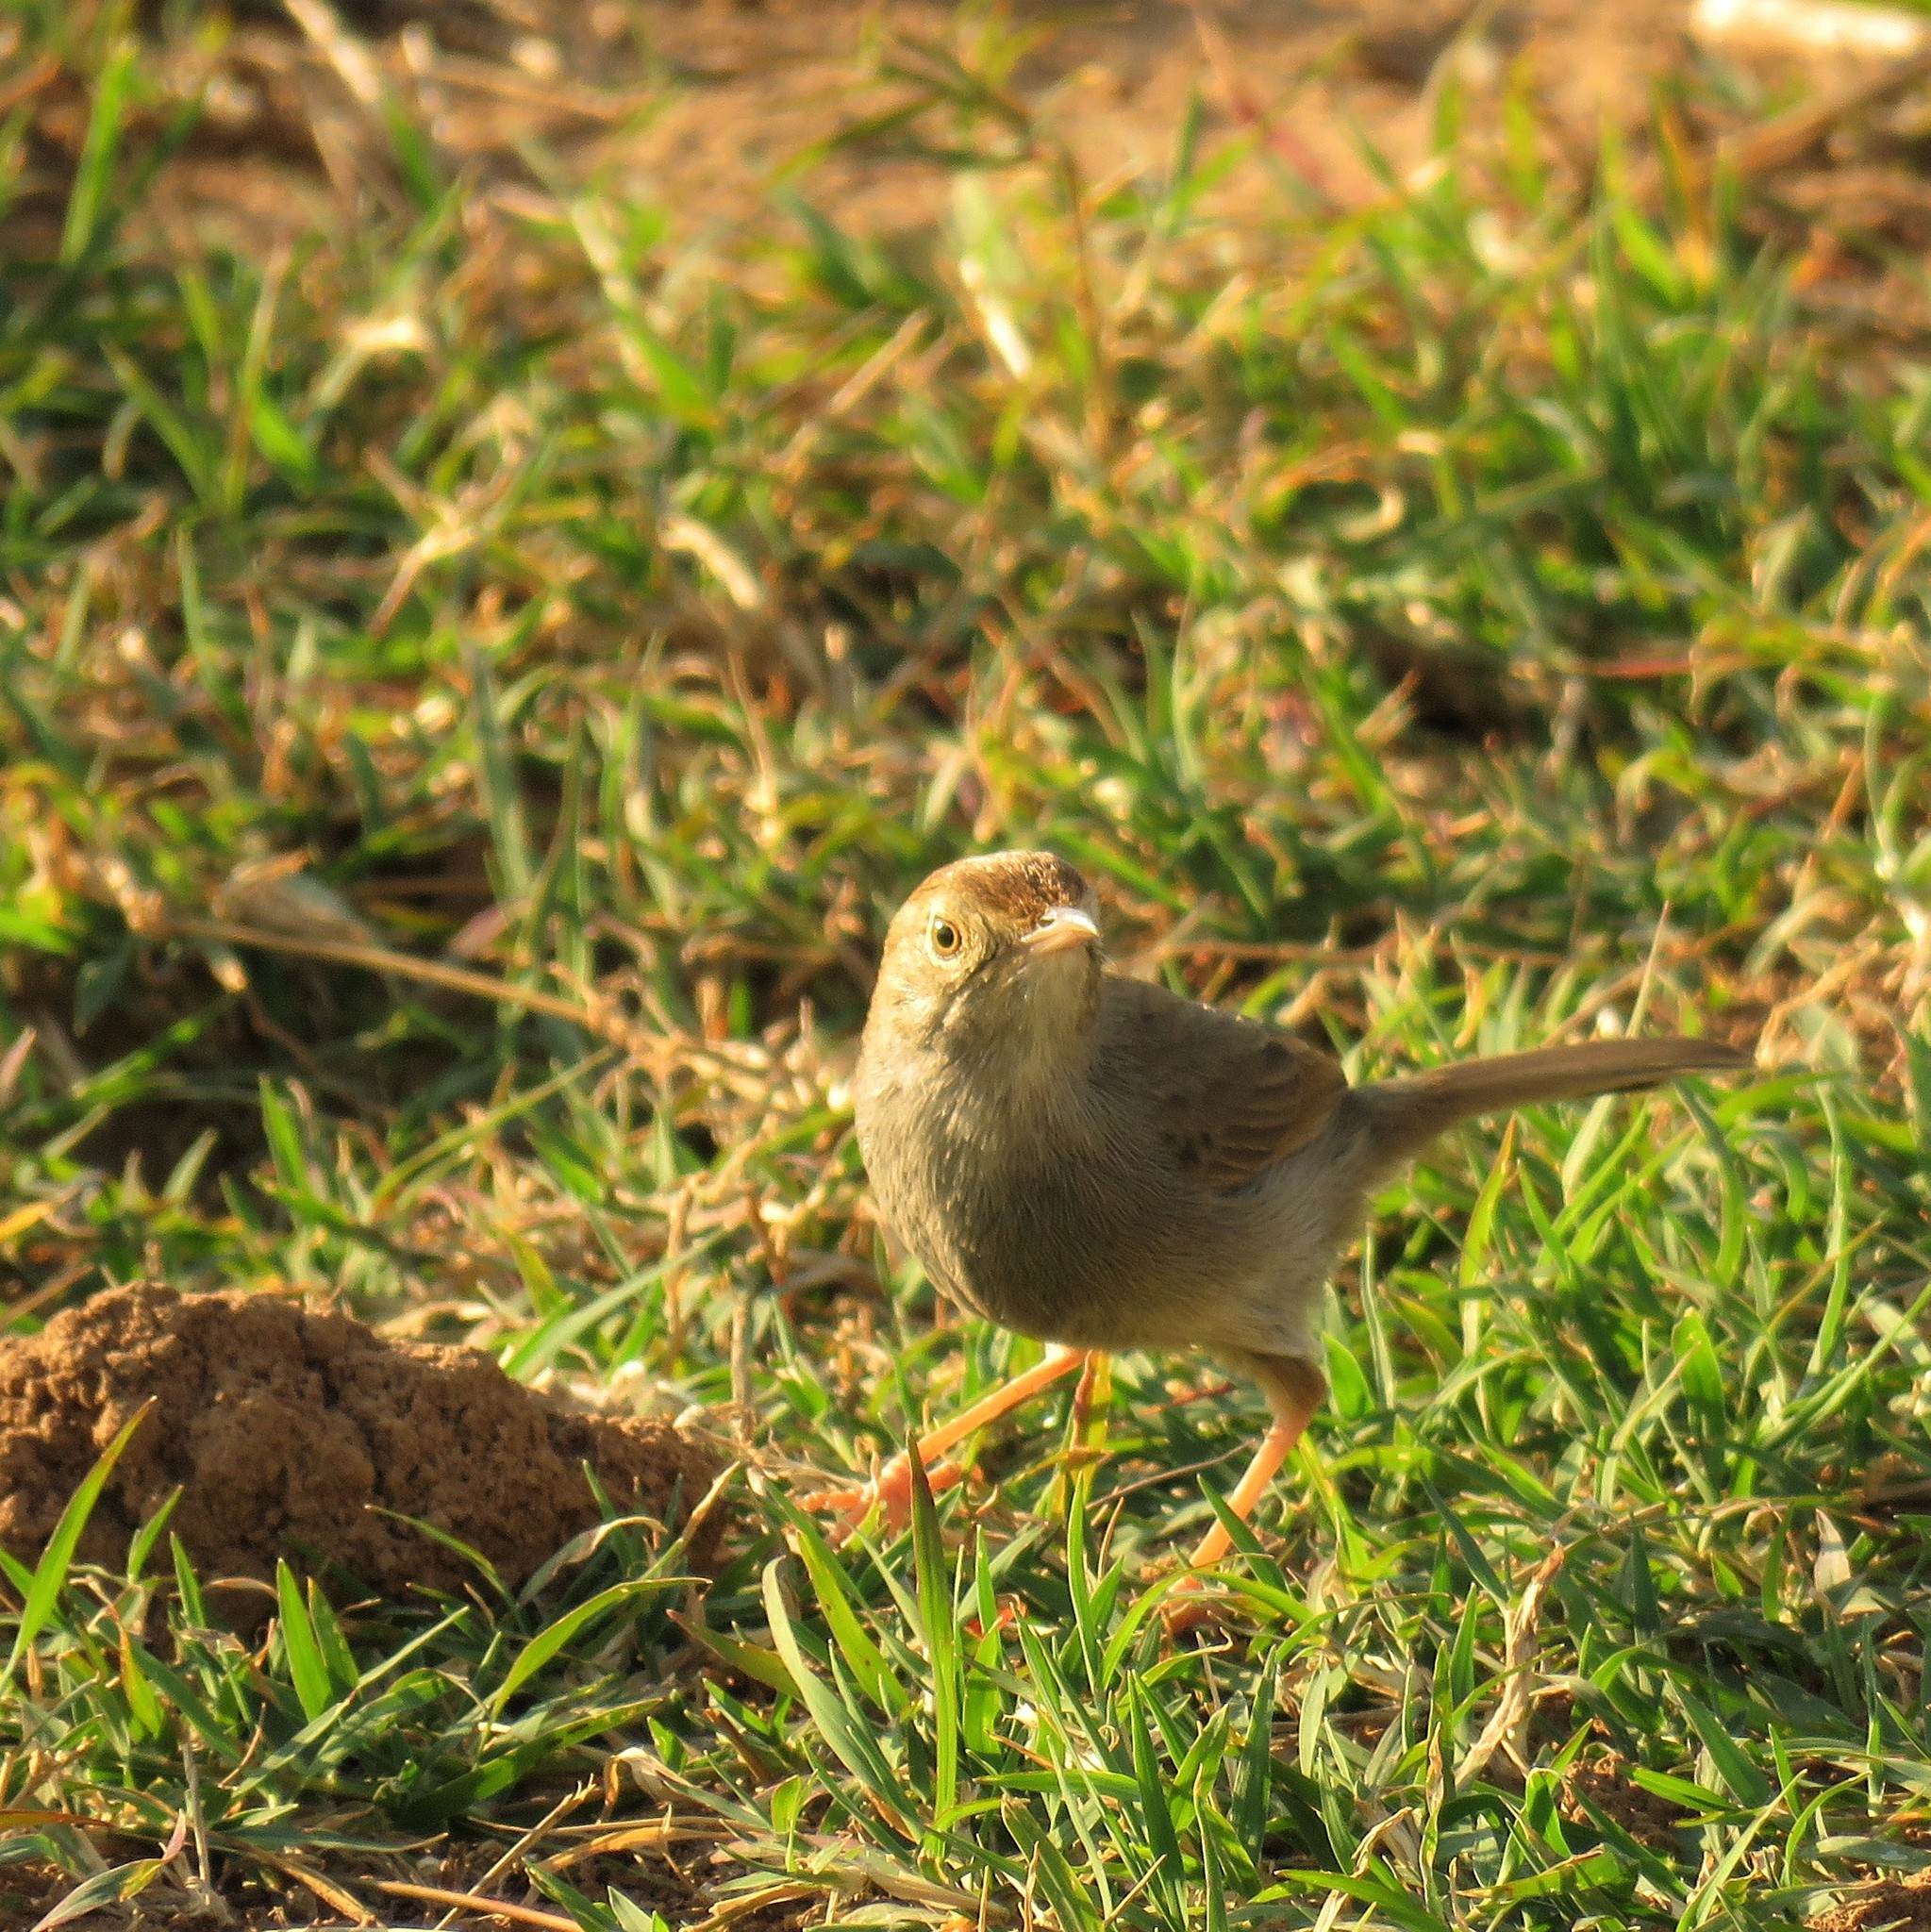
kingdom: Animalia
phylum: Chordata
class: Aves
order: Passeriformes
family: Cisticolidae
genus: Cisticola
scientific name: Cisticola fulvicapilla
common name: Neddicky
